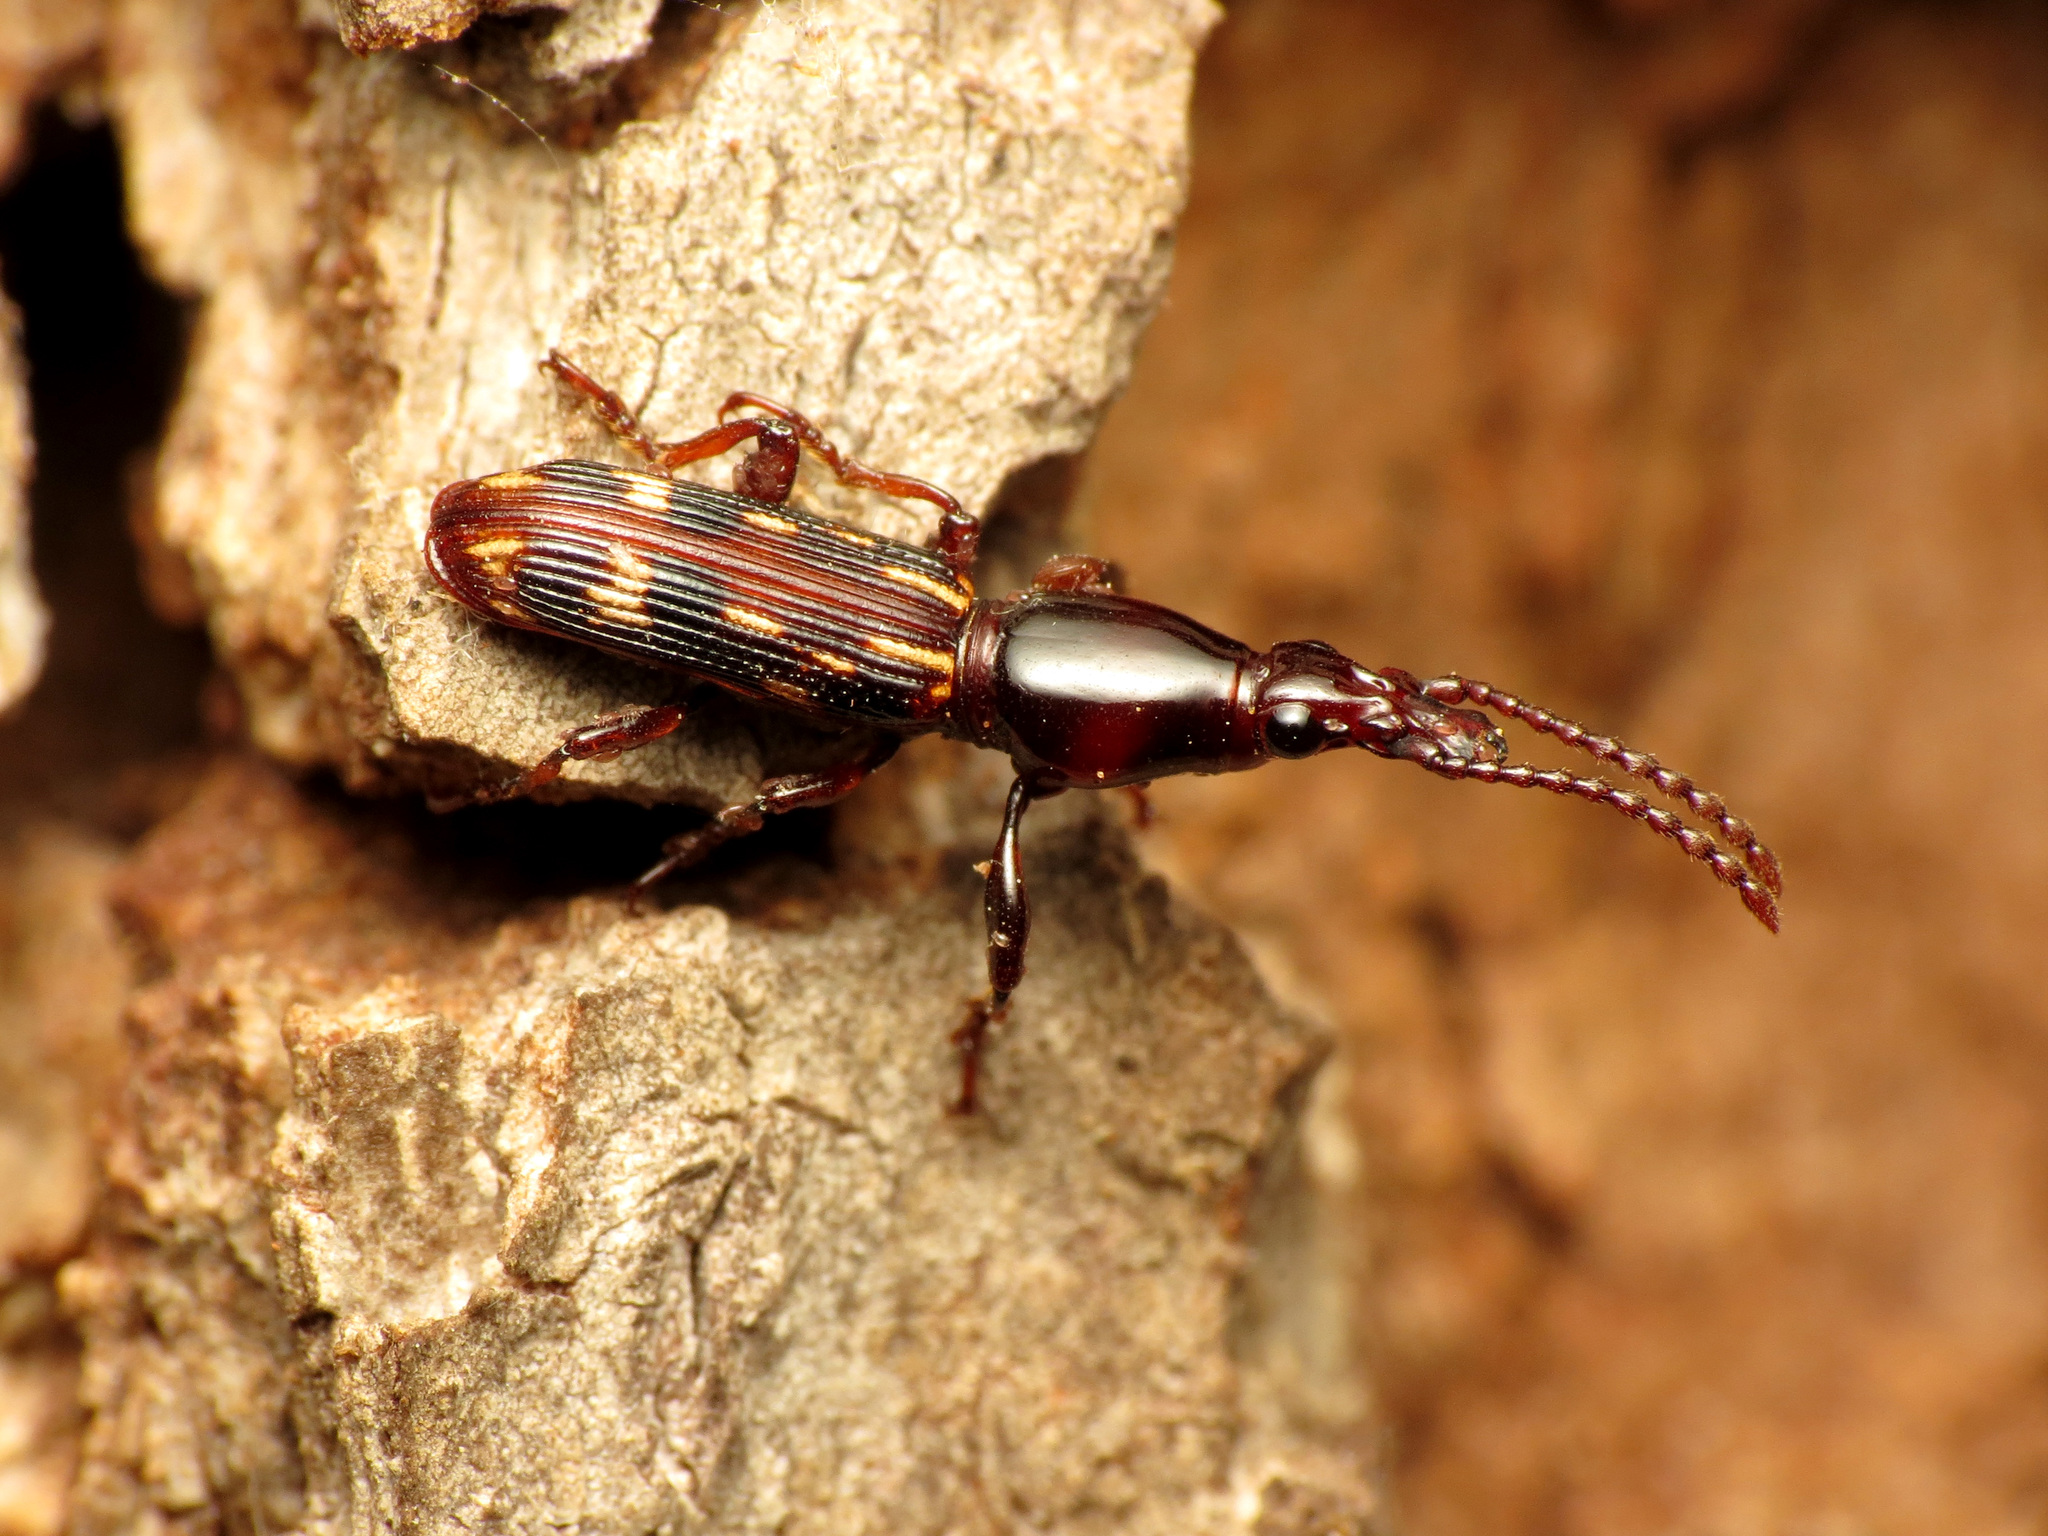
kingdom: Animalia
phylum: Arthropoda
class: Insecta
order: Coleoptera
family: Brentidae
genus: Arrenodes
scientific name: Arrenodes minutus
